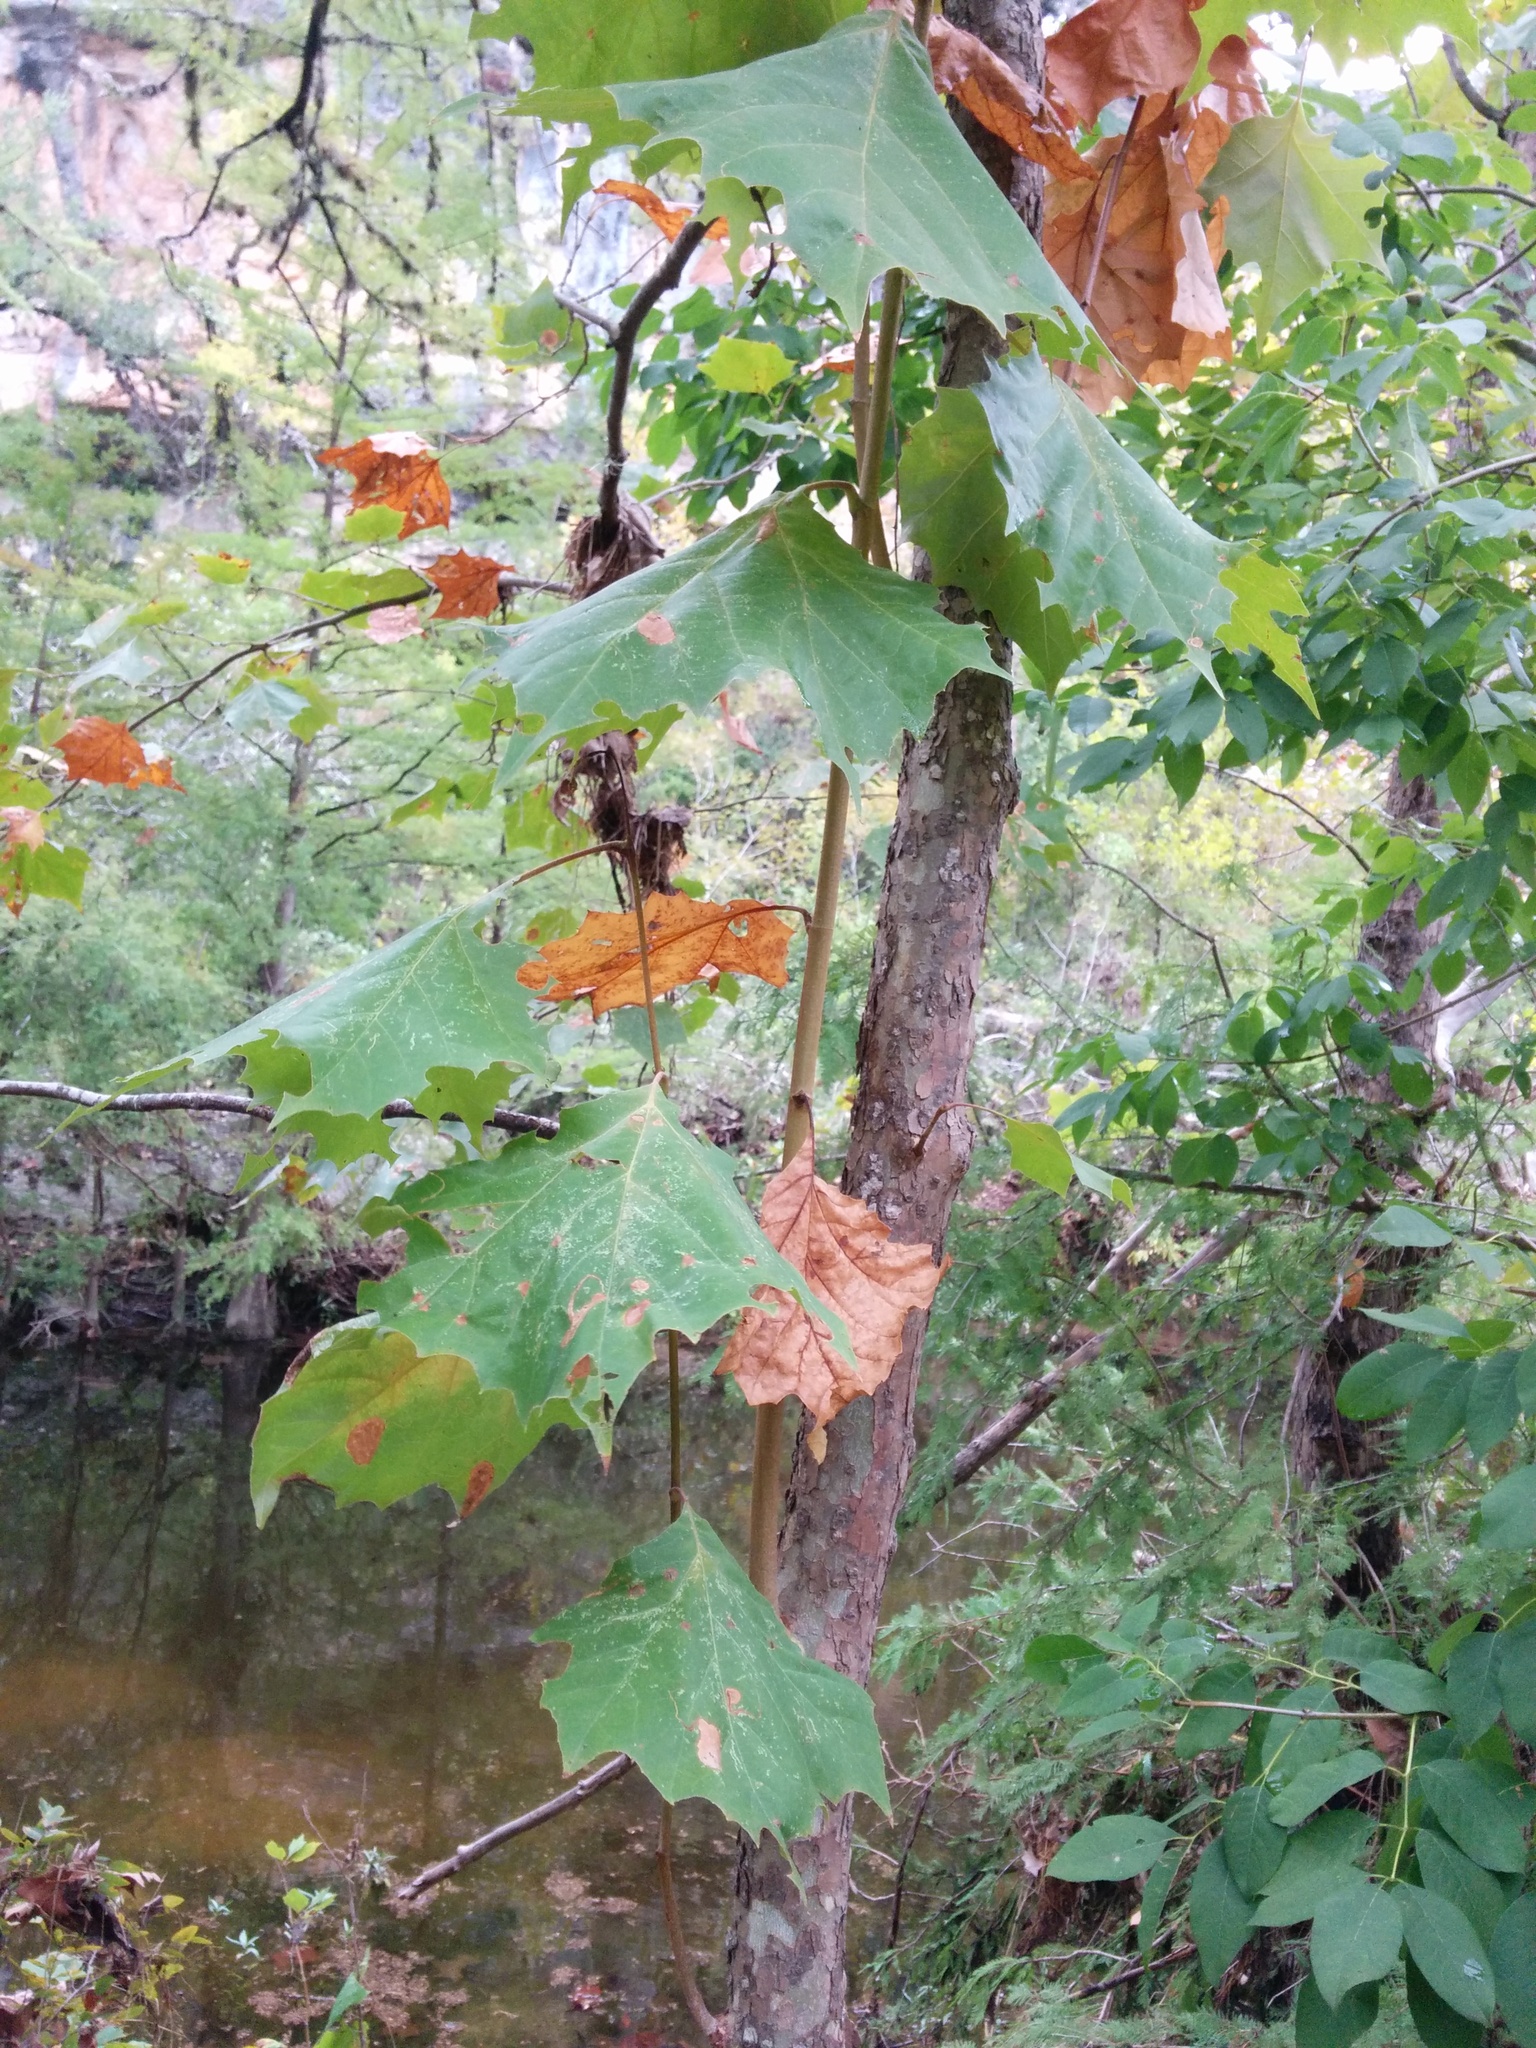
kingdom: Plantae
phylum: Tracheophyta
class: Magnoliopsida
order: Proteales
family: Platanaceae
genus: Platanus
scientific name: Platanus occidentalis
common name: American sycamore
